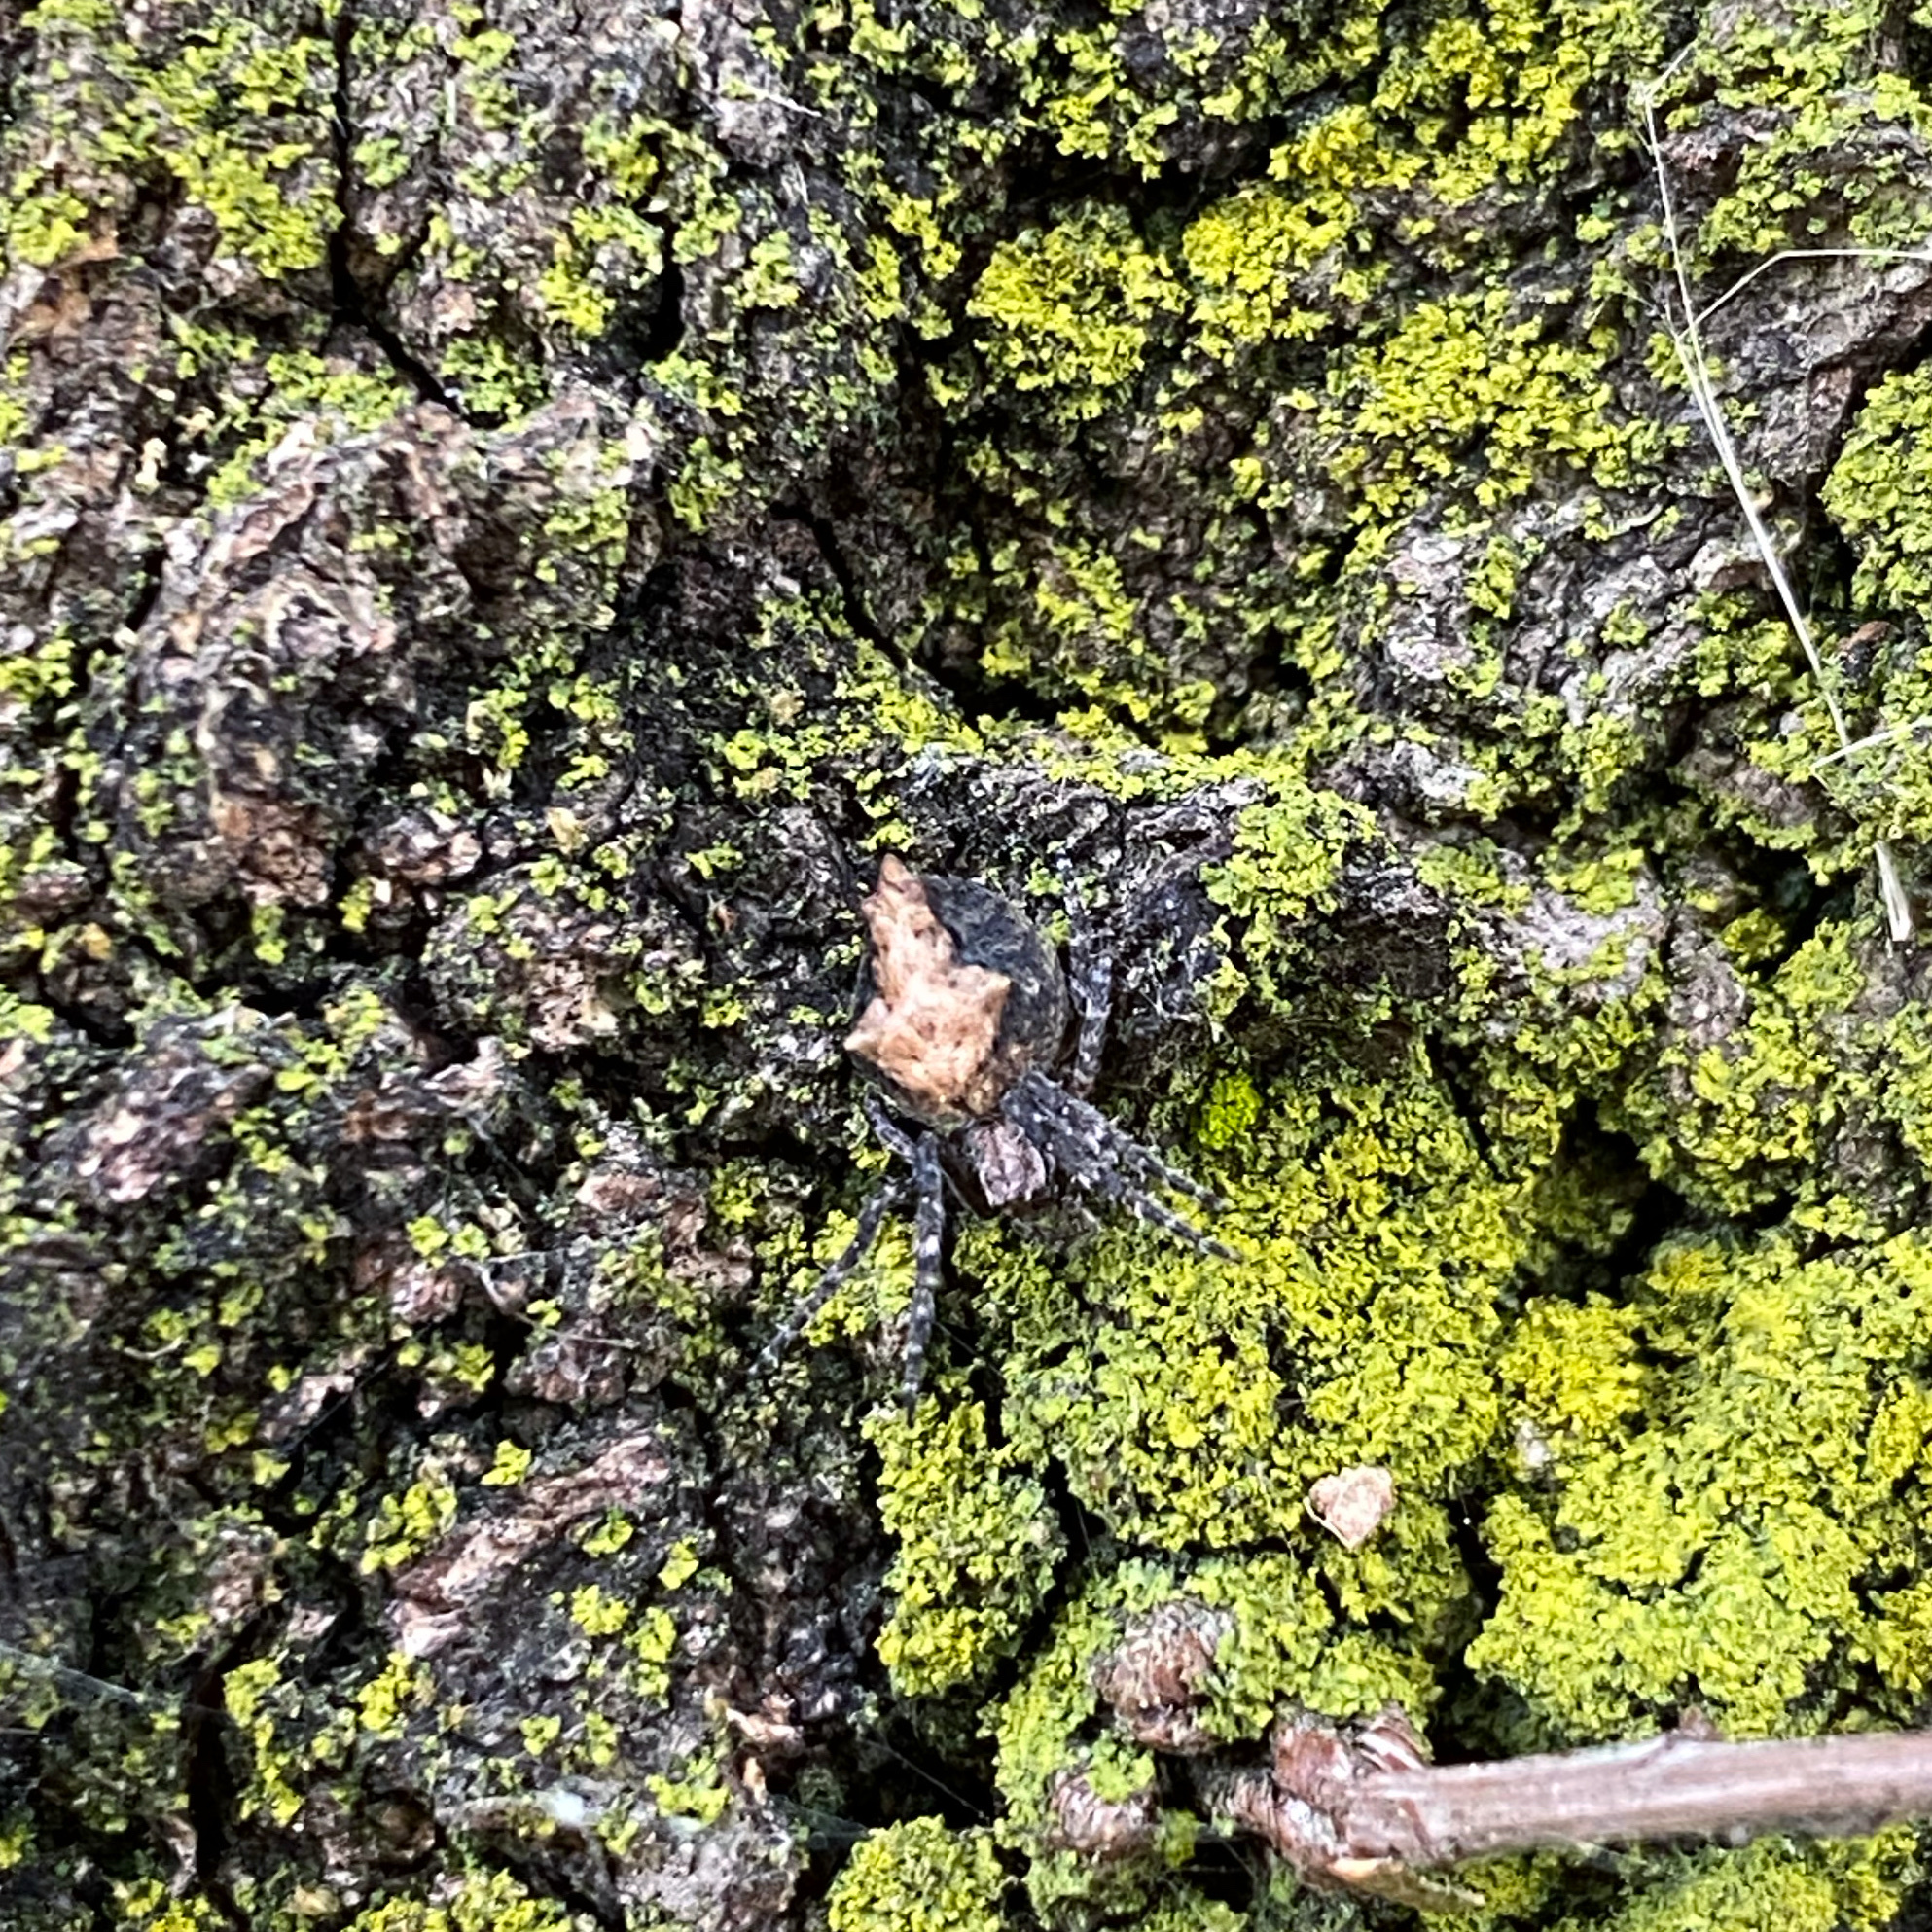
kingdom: Animalia
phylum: Arthropoda
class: Arachnida
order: Araneae
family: Araneidae
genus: Eriophora
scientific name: Eriophora pustulosa
